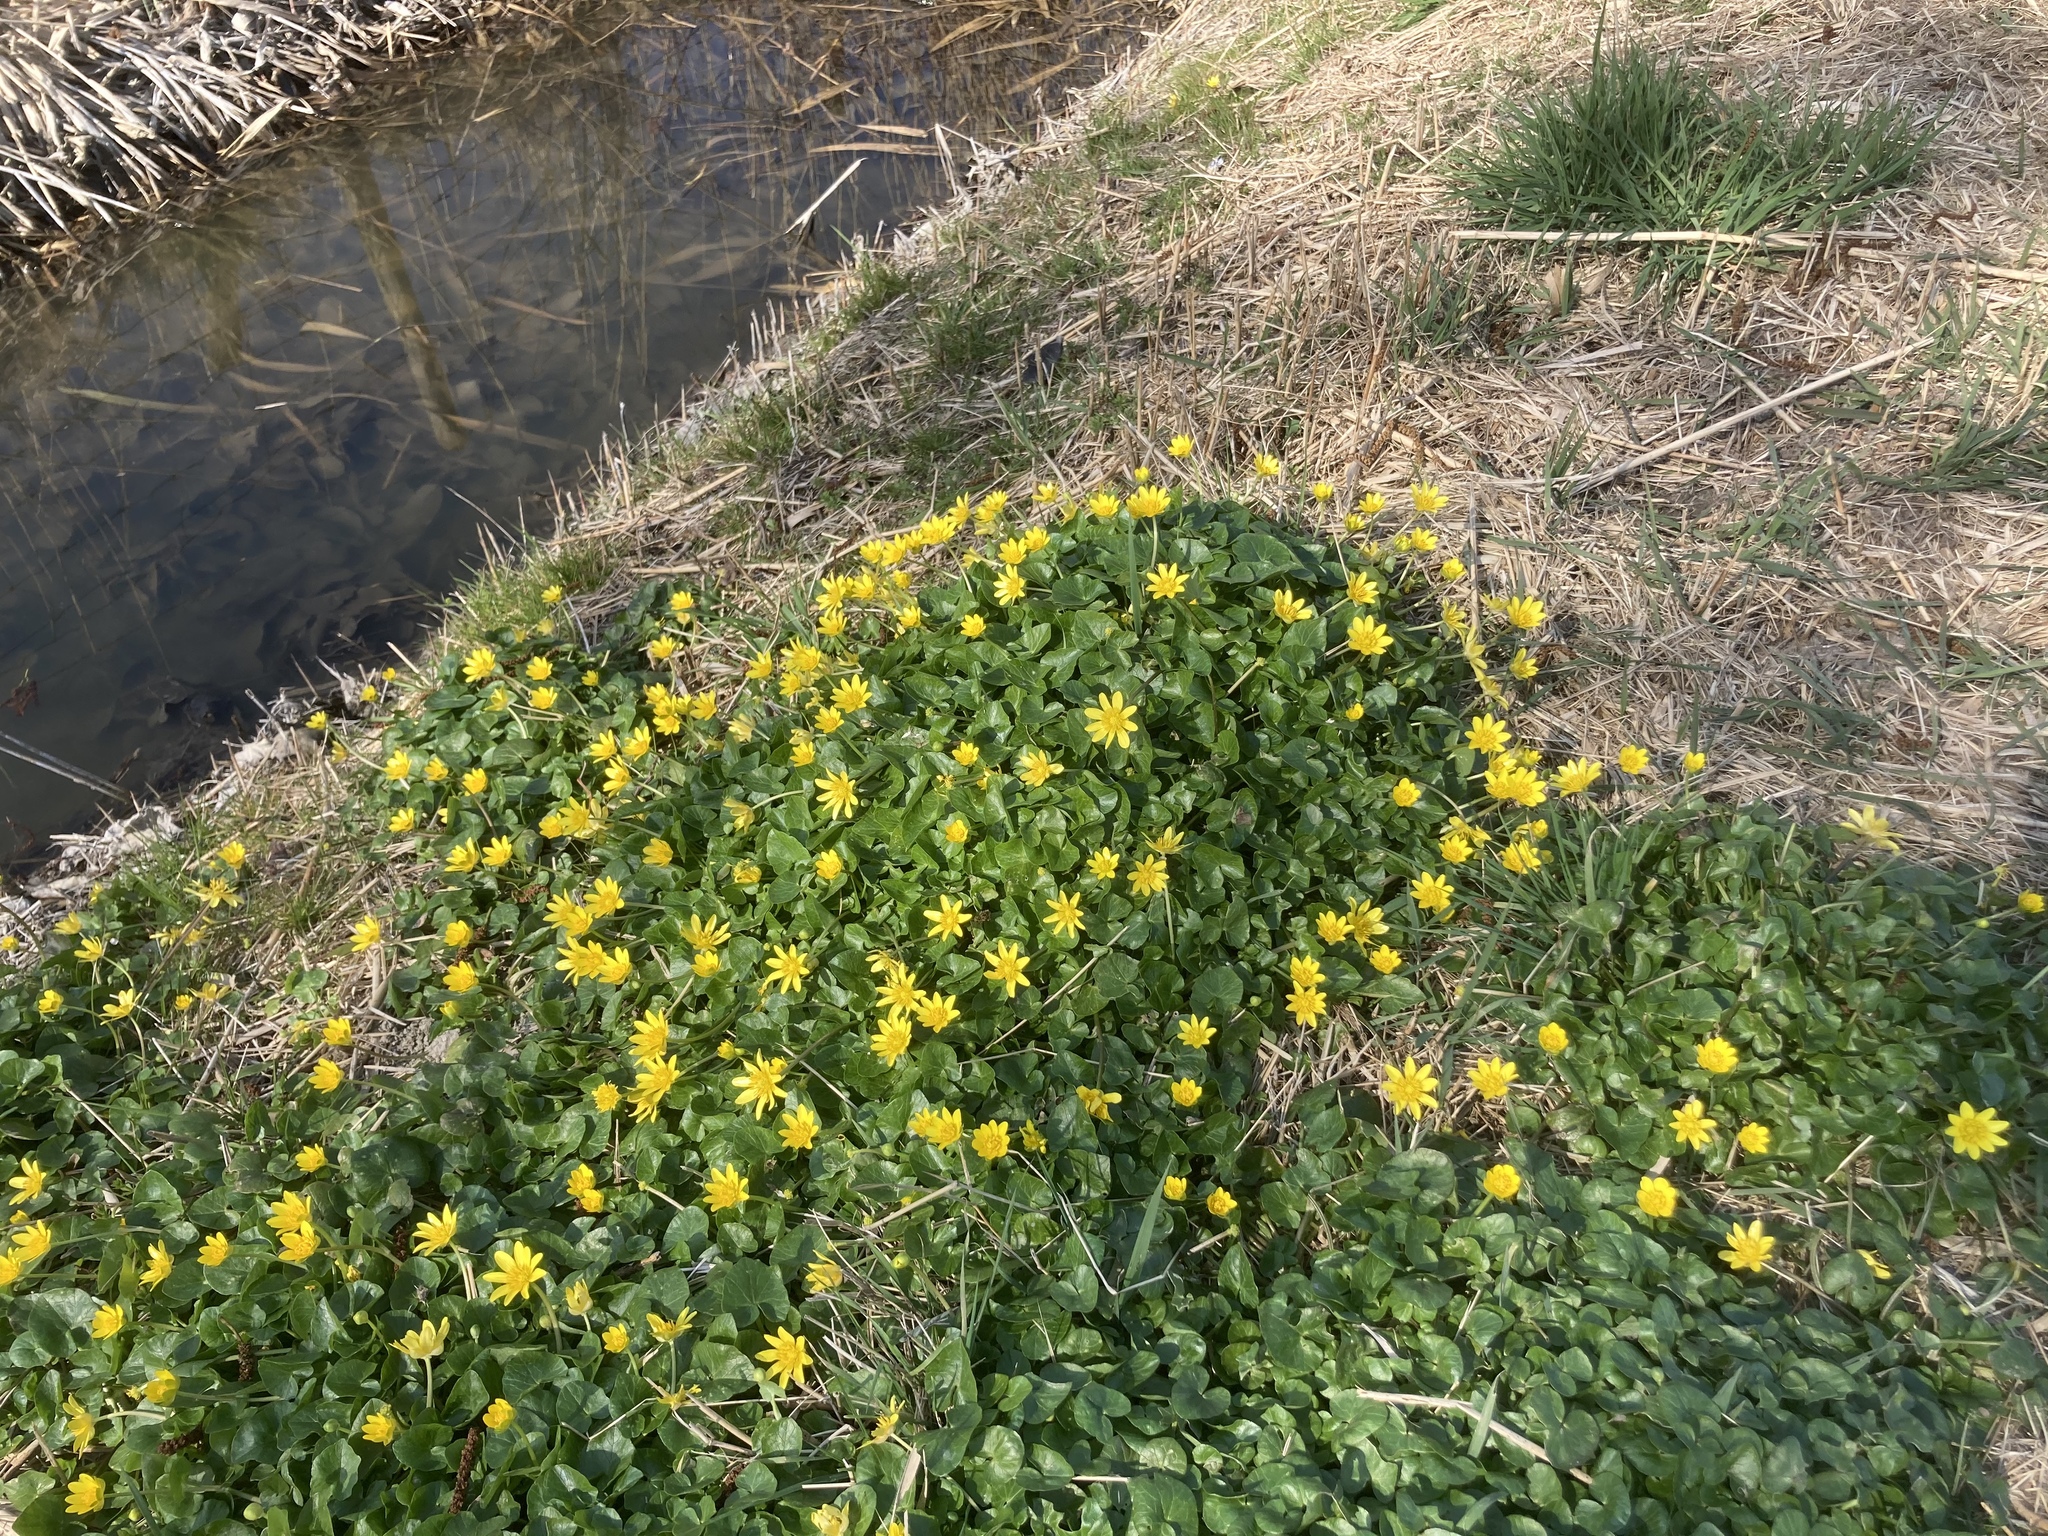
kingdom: Plantae
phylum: Tracheophyta
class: Magnoliopsida
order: Ranunculales
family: Ranunculaceae
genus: Ficaria
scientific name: Ficaria verna
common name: Lesser celandine
